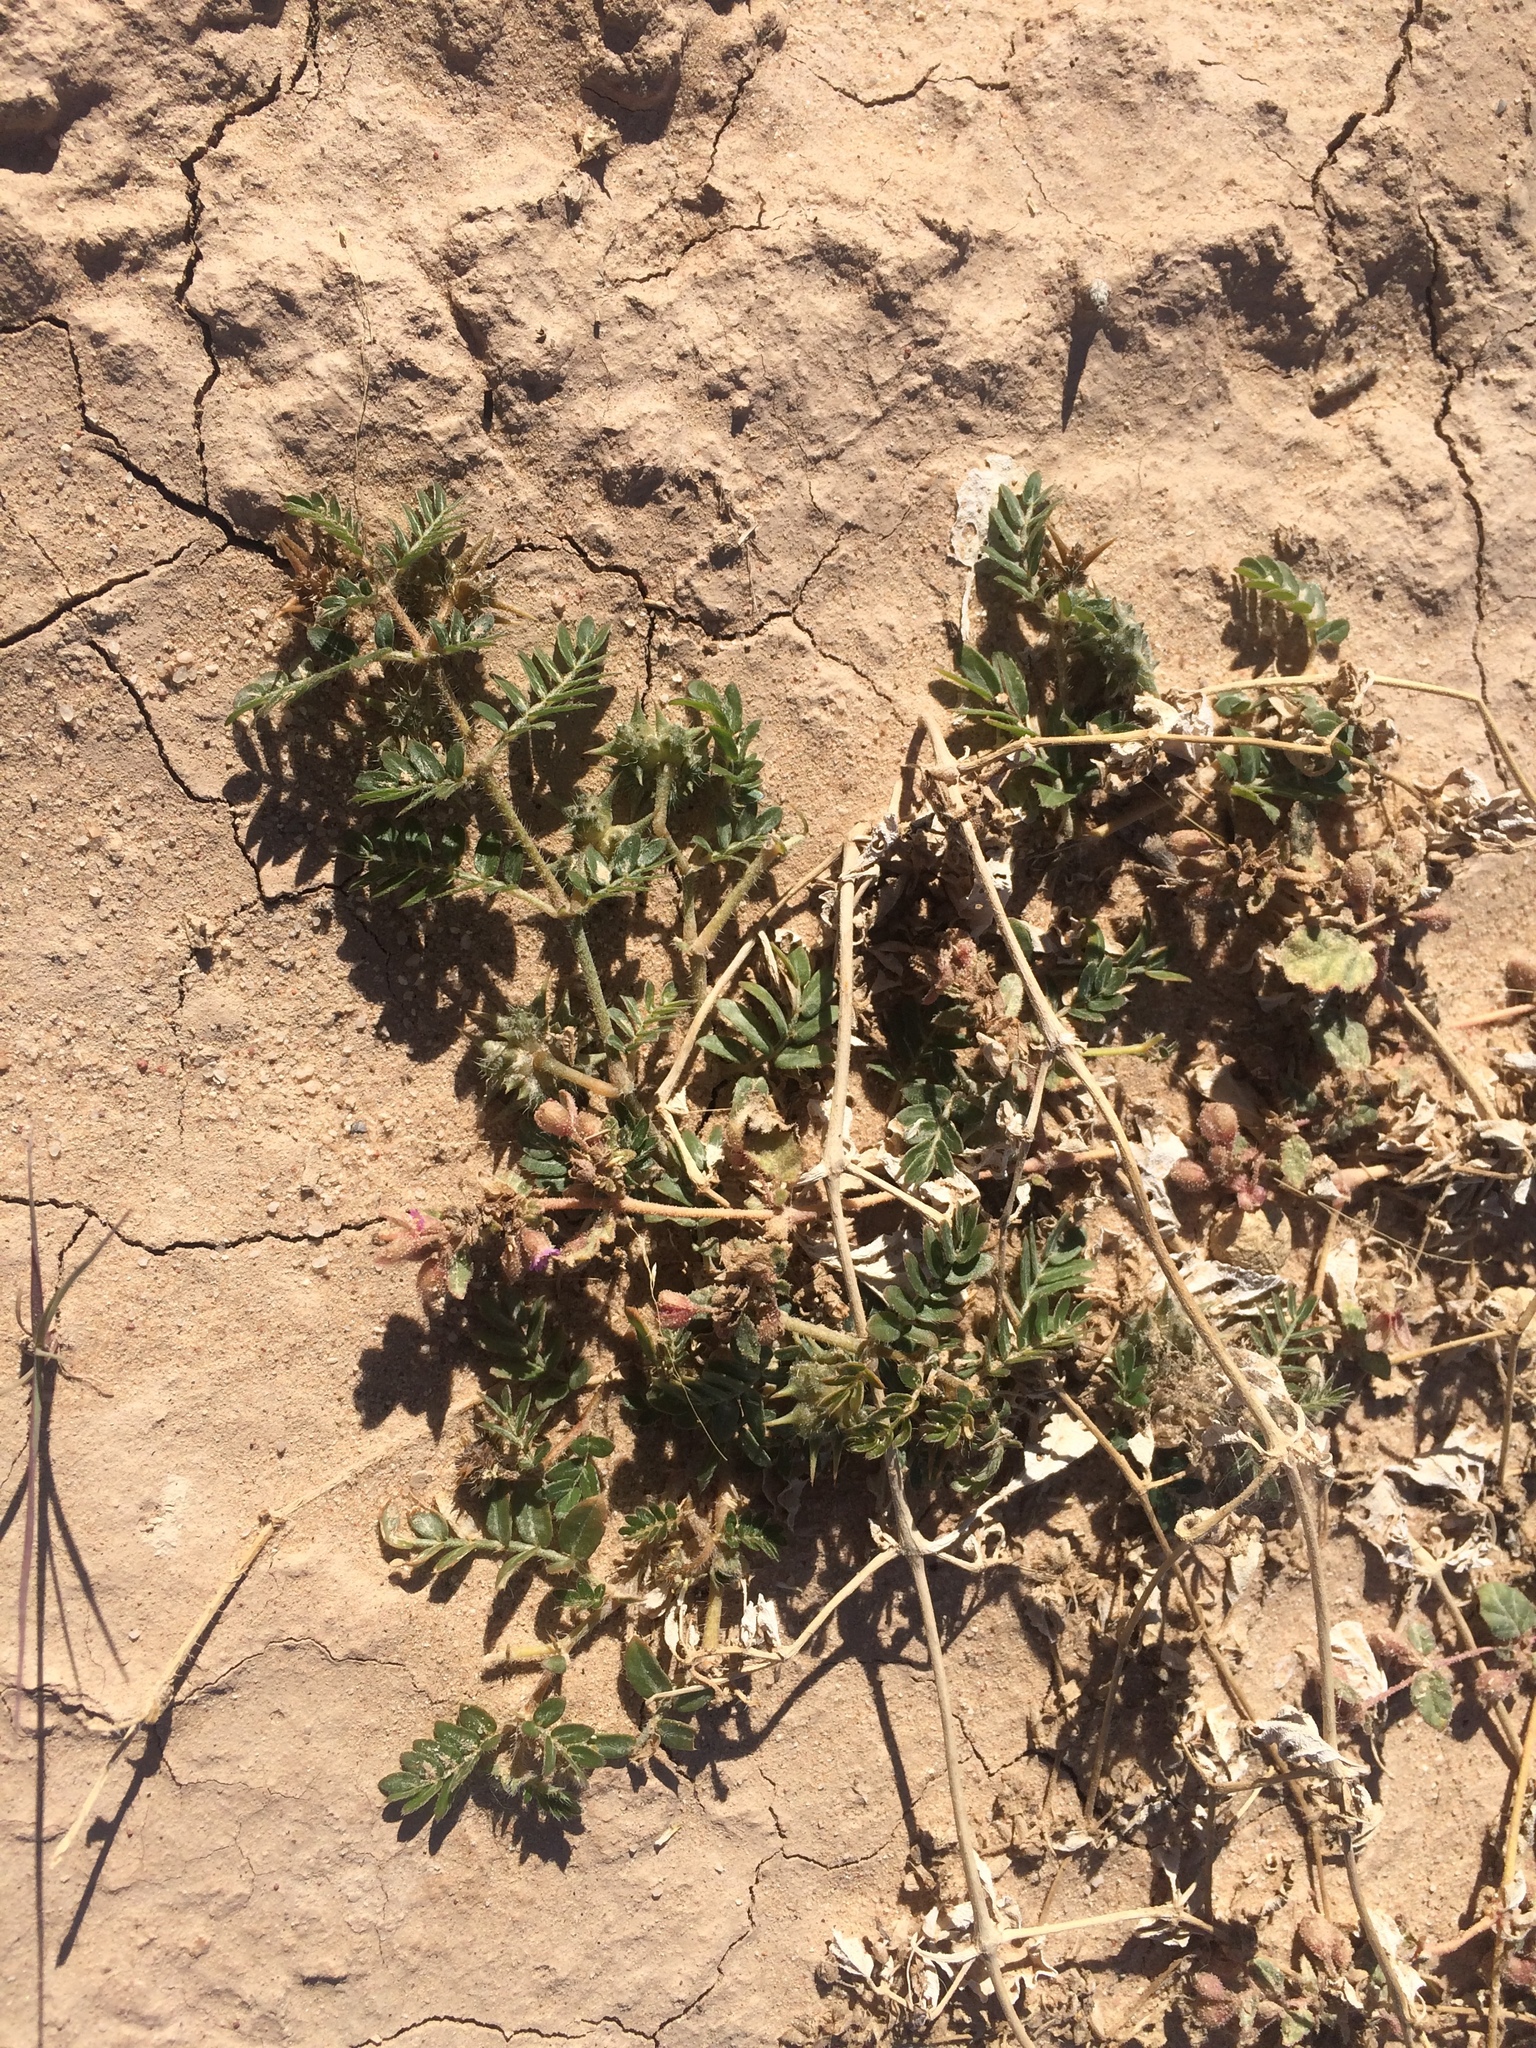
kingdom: Plantae
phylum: Tracheophyta
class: Magnoliopsida
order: Zygophyllales
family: Zygophyllaceae
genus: Tribulus
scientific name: Tribulus terrestris
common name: Puncturevine
